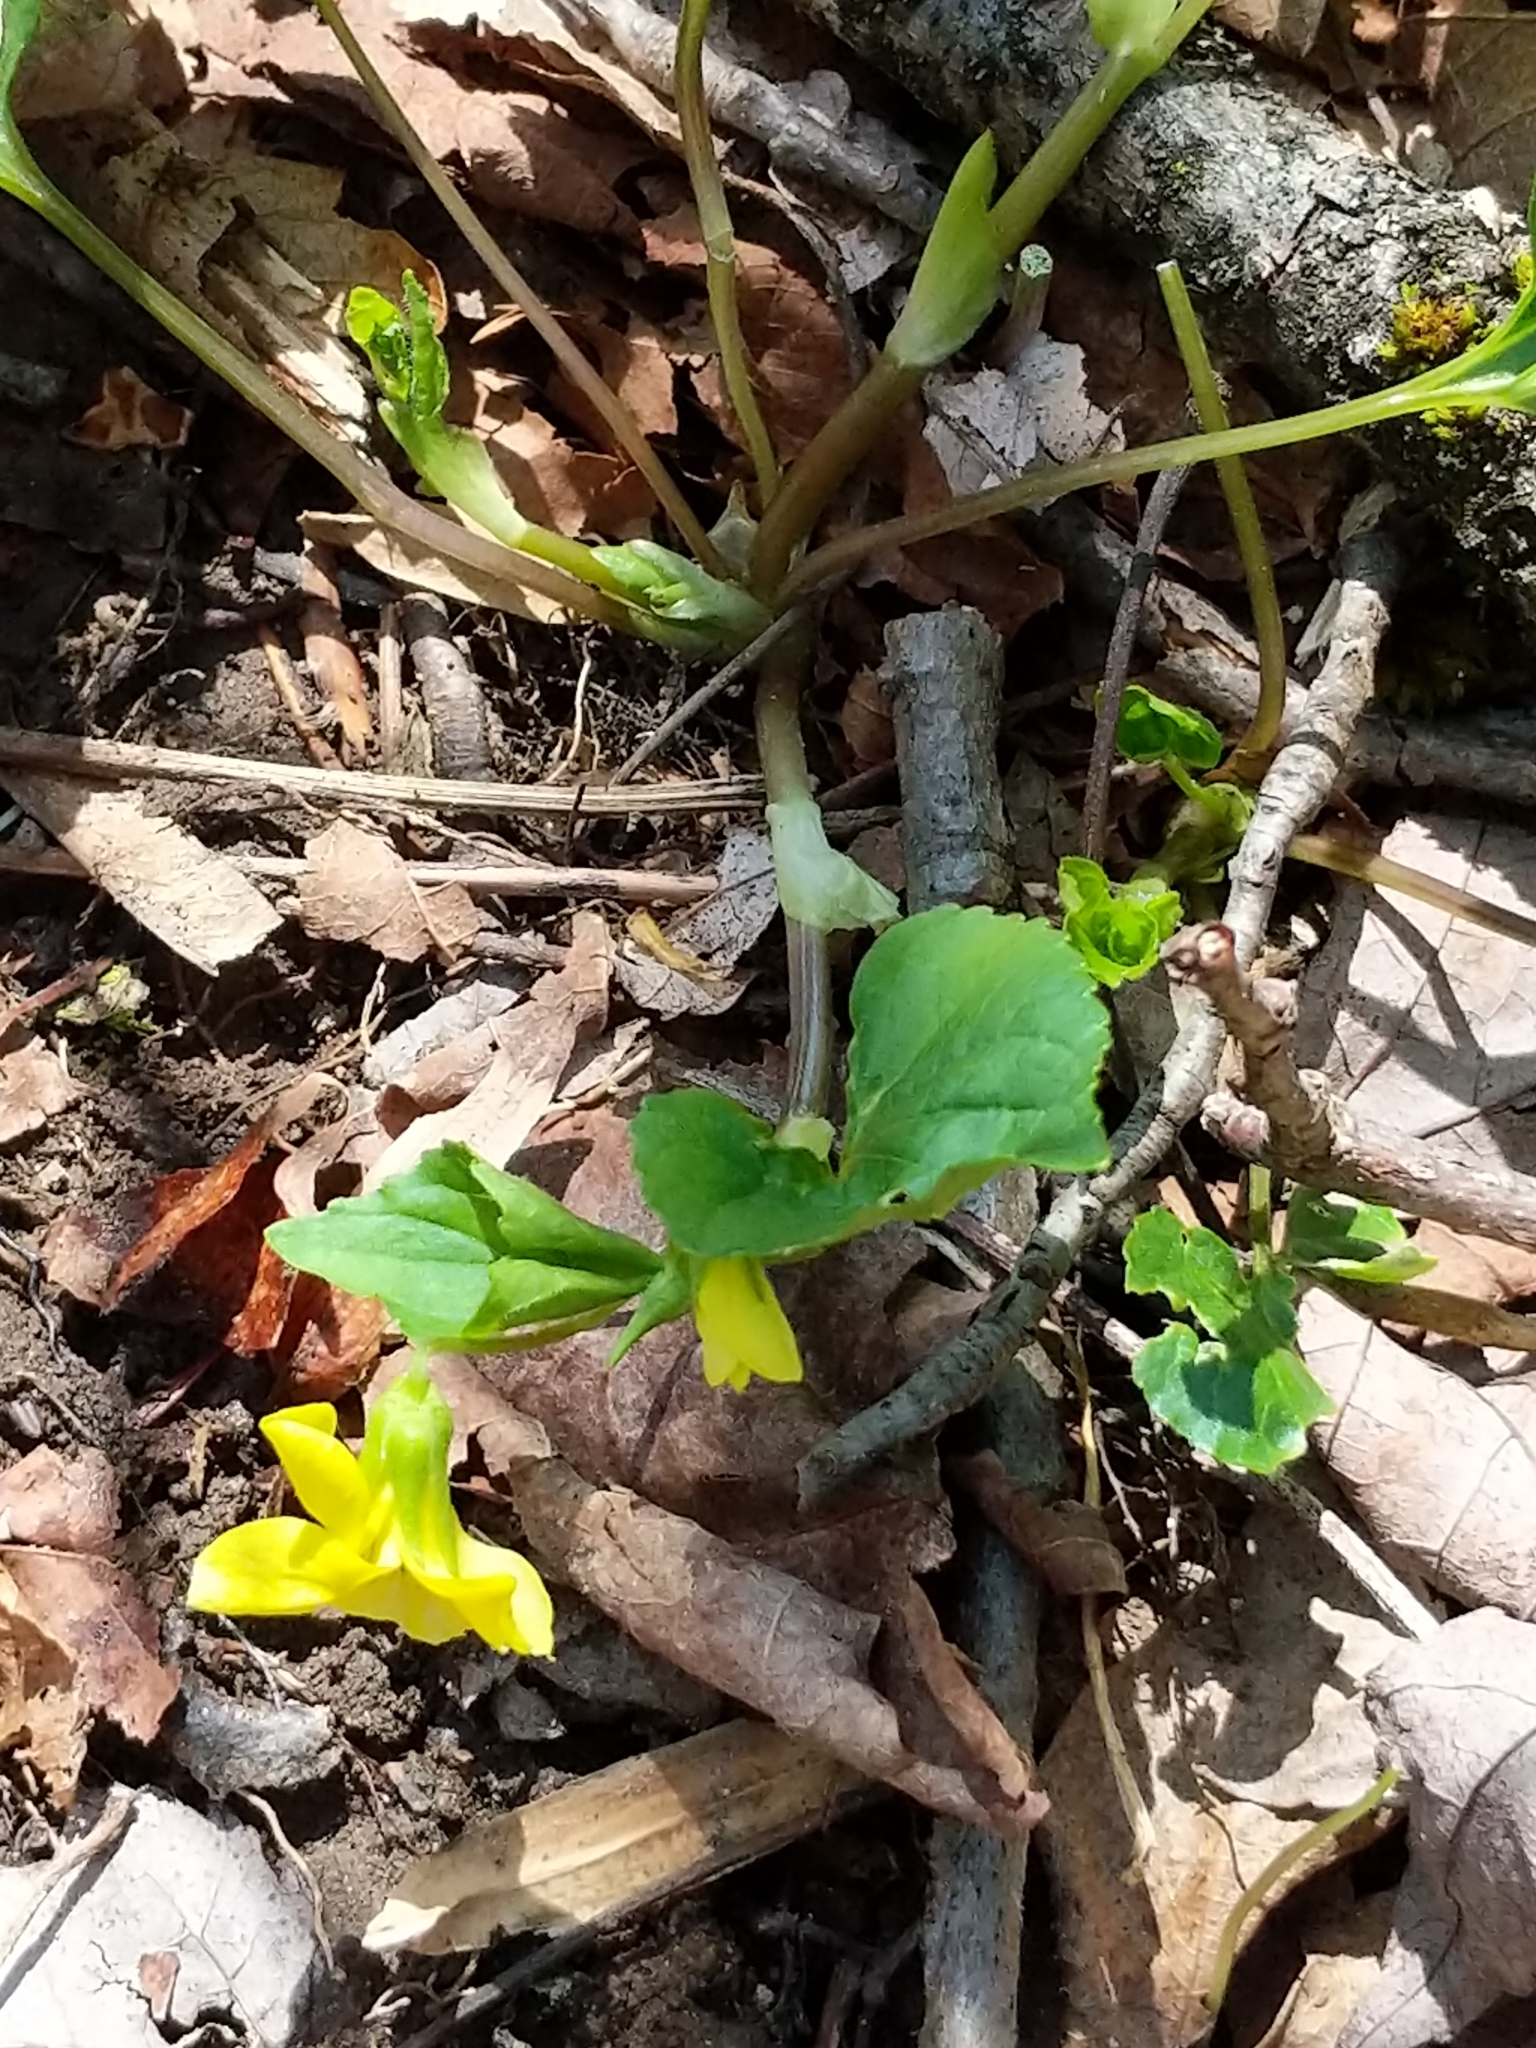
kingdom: Plantae
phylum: Tracheophyta
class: Magnoliopsida
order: Malpighiales
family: Violaceae
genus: Viola
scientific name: Viola eriocarpa
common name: Smooth yellow violet
